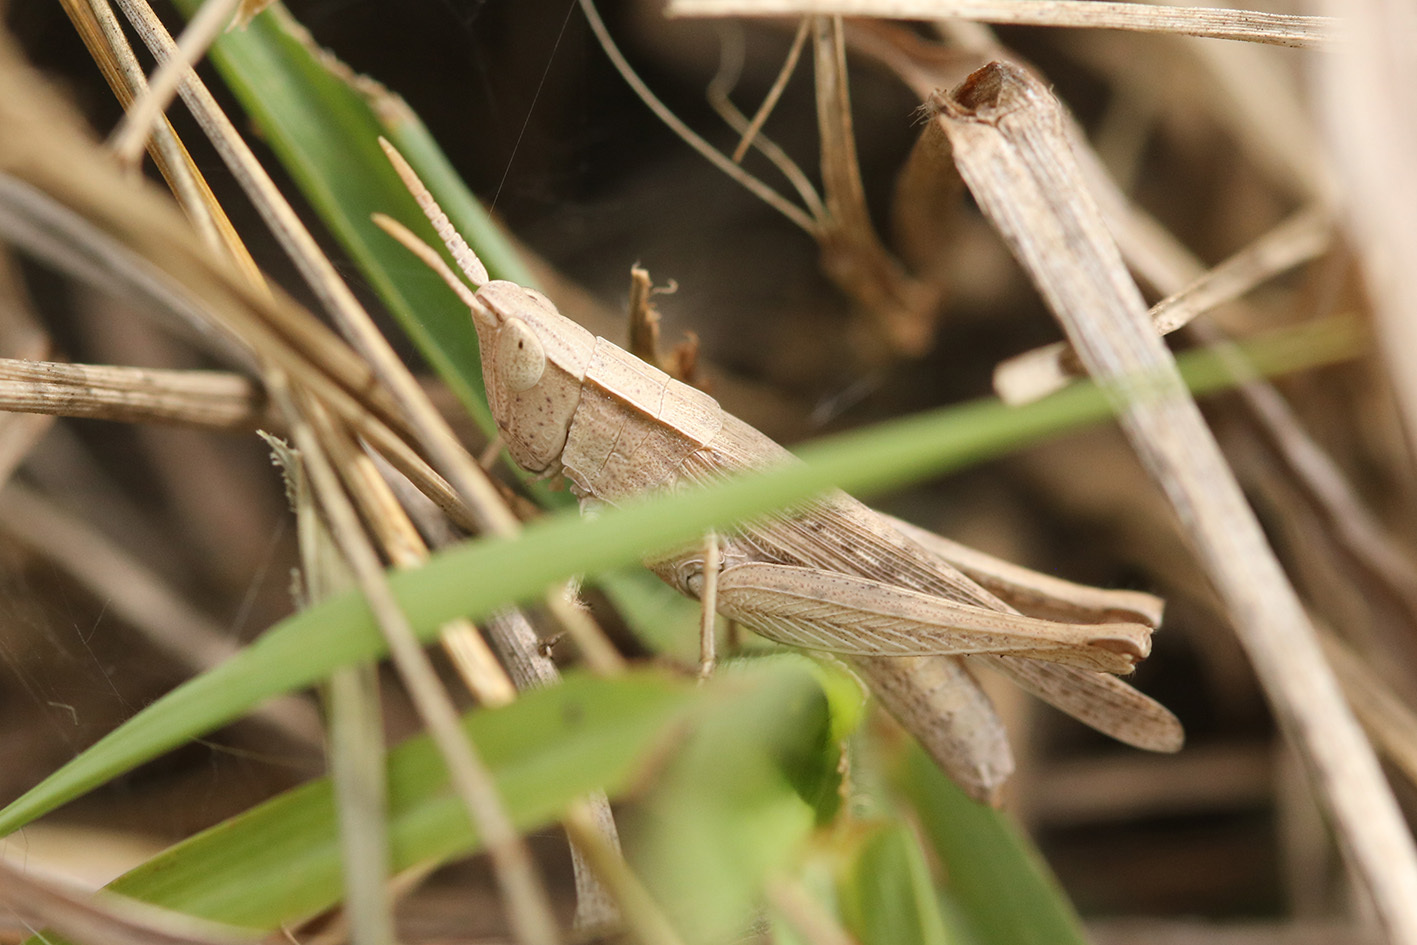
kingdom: Animalia
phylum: Arthropoda
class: Insecta
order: Orthoptera
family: Acrididae
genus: Laplatacris
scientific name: Laplatacris dispar
